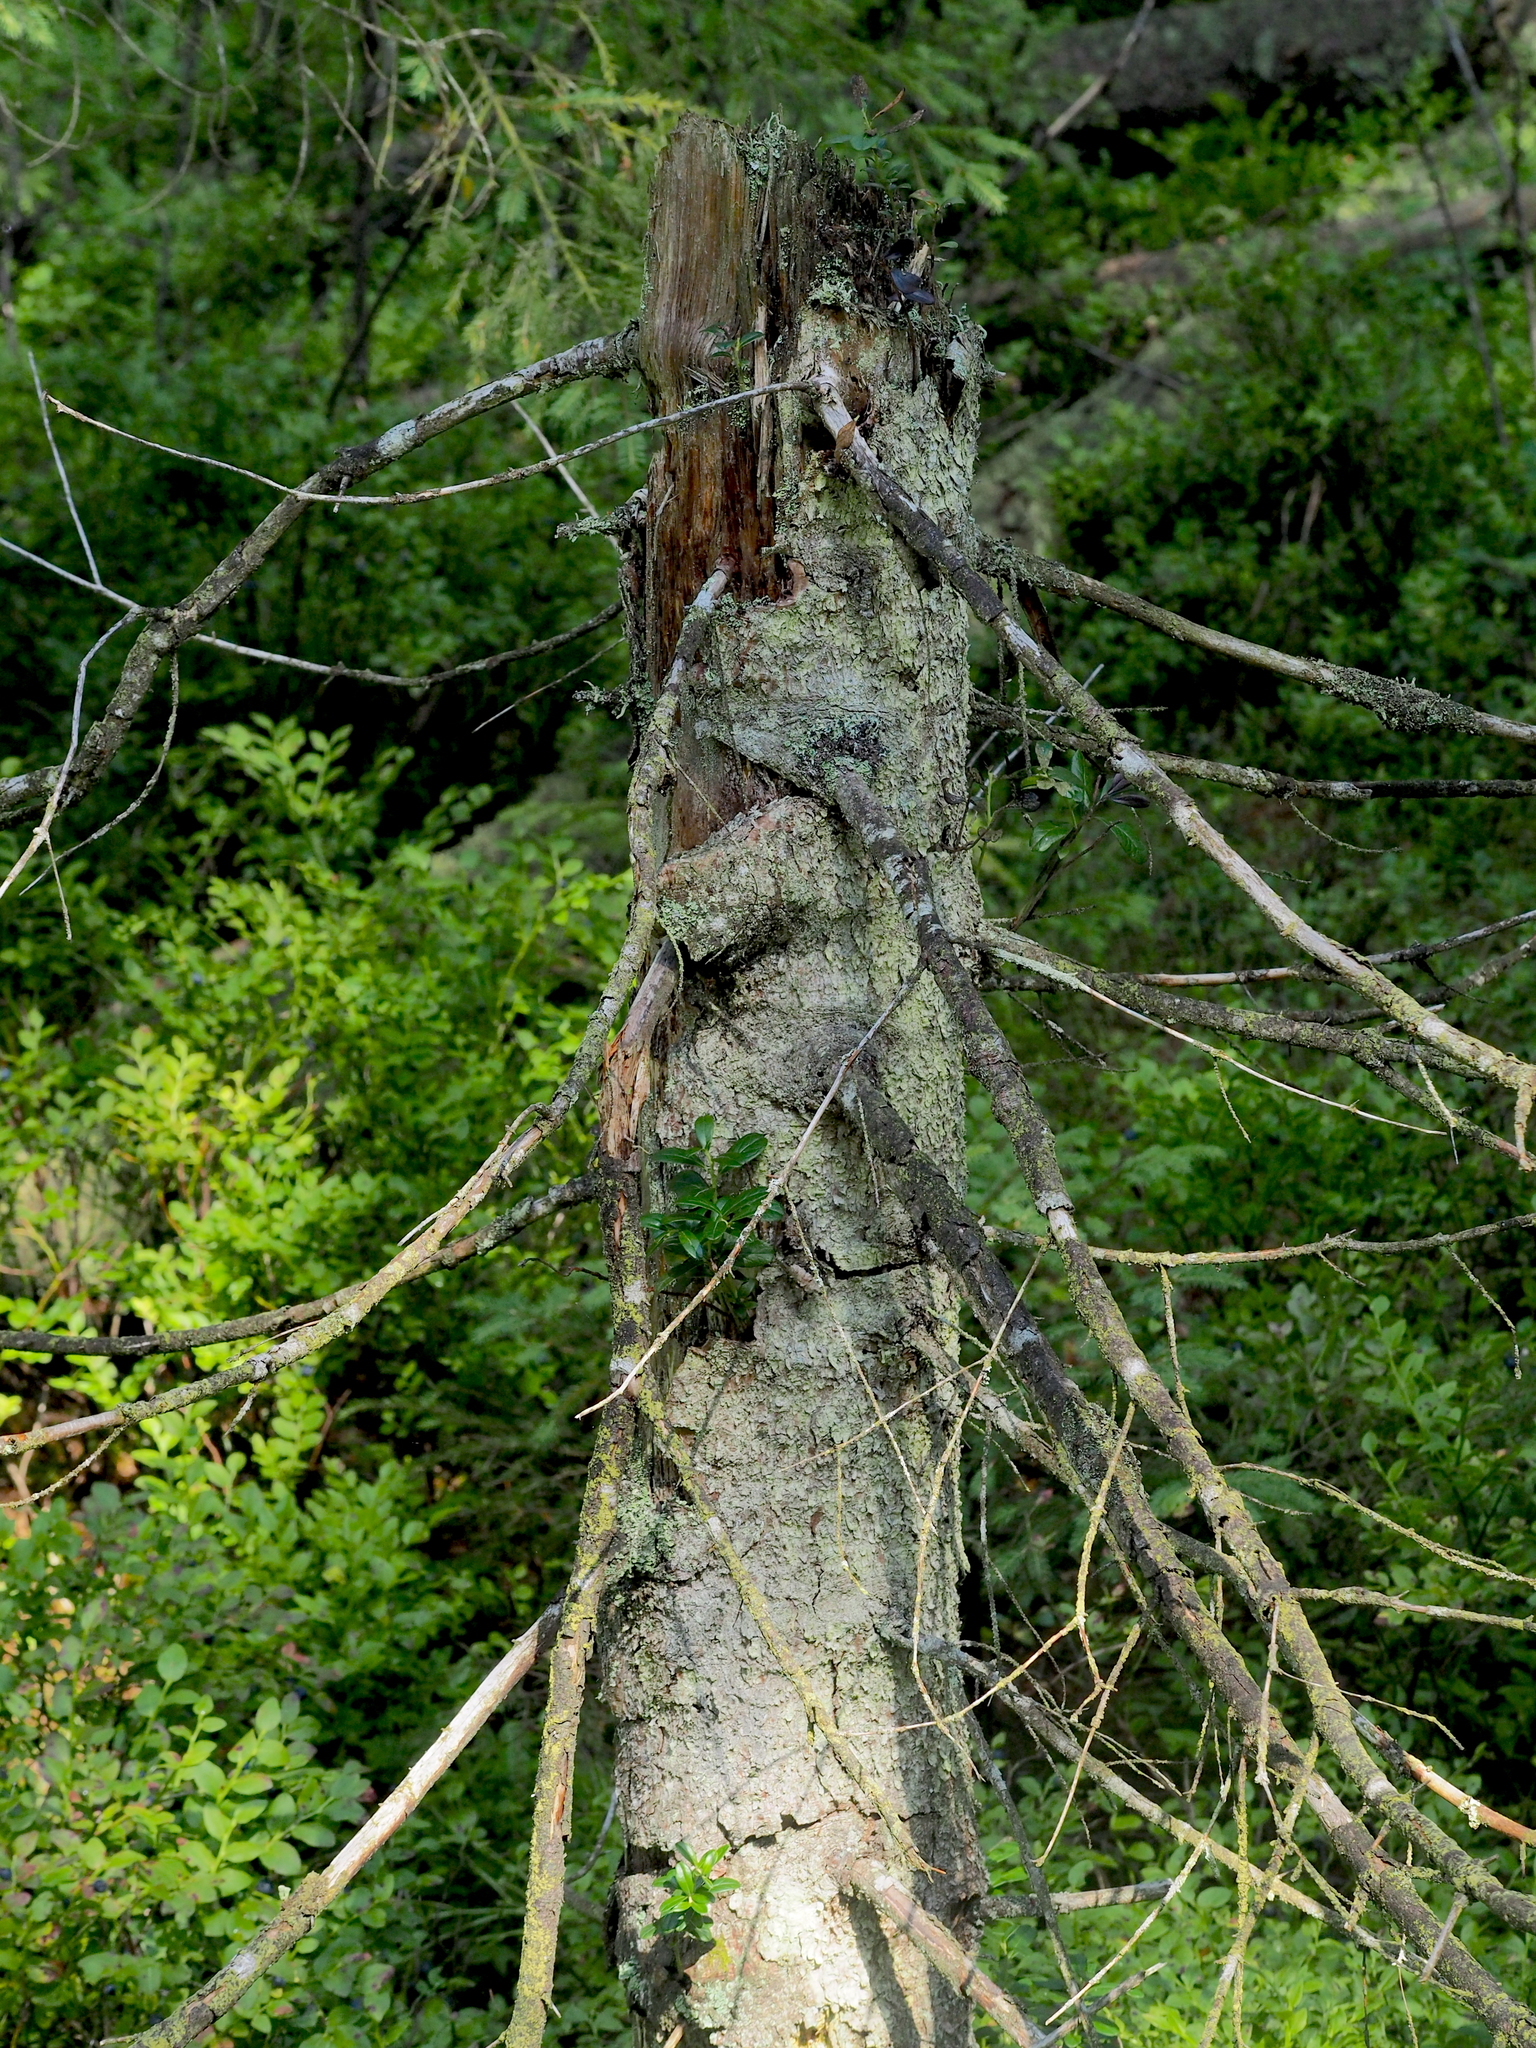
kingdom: Plantae
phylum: Tracheophyta
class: Magnoliopsida
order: Ericales
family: Ericaceae
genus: Vaccinium
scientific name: Vaccinium vitis-idaea
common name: Cowberry
